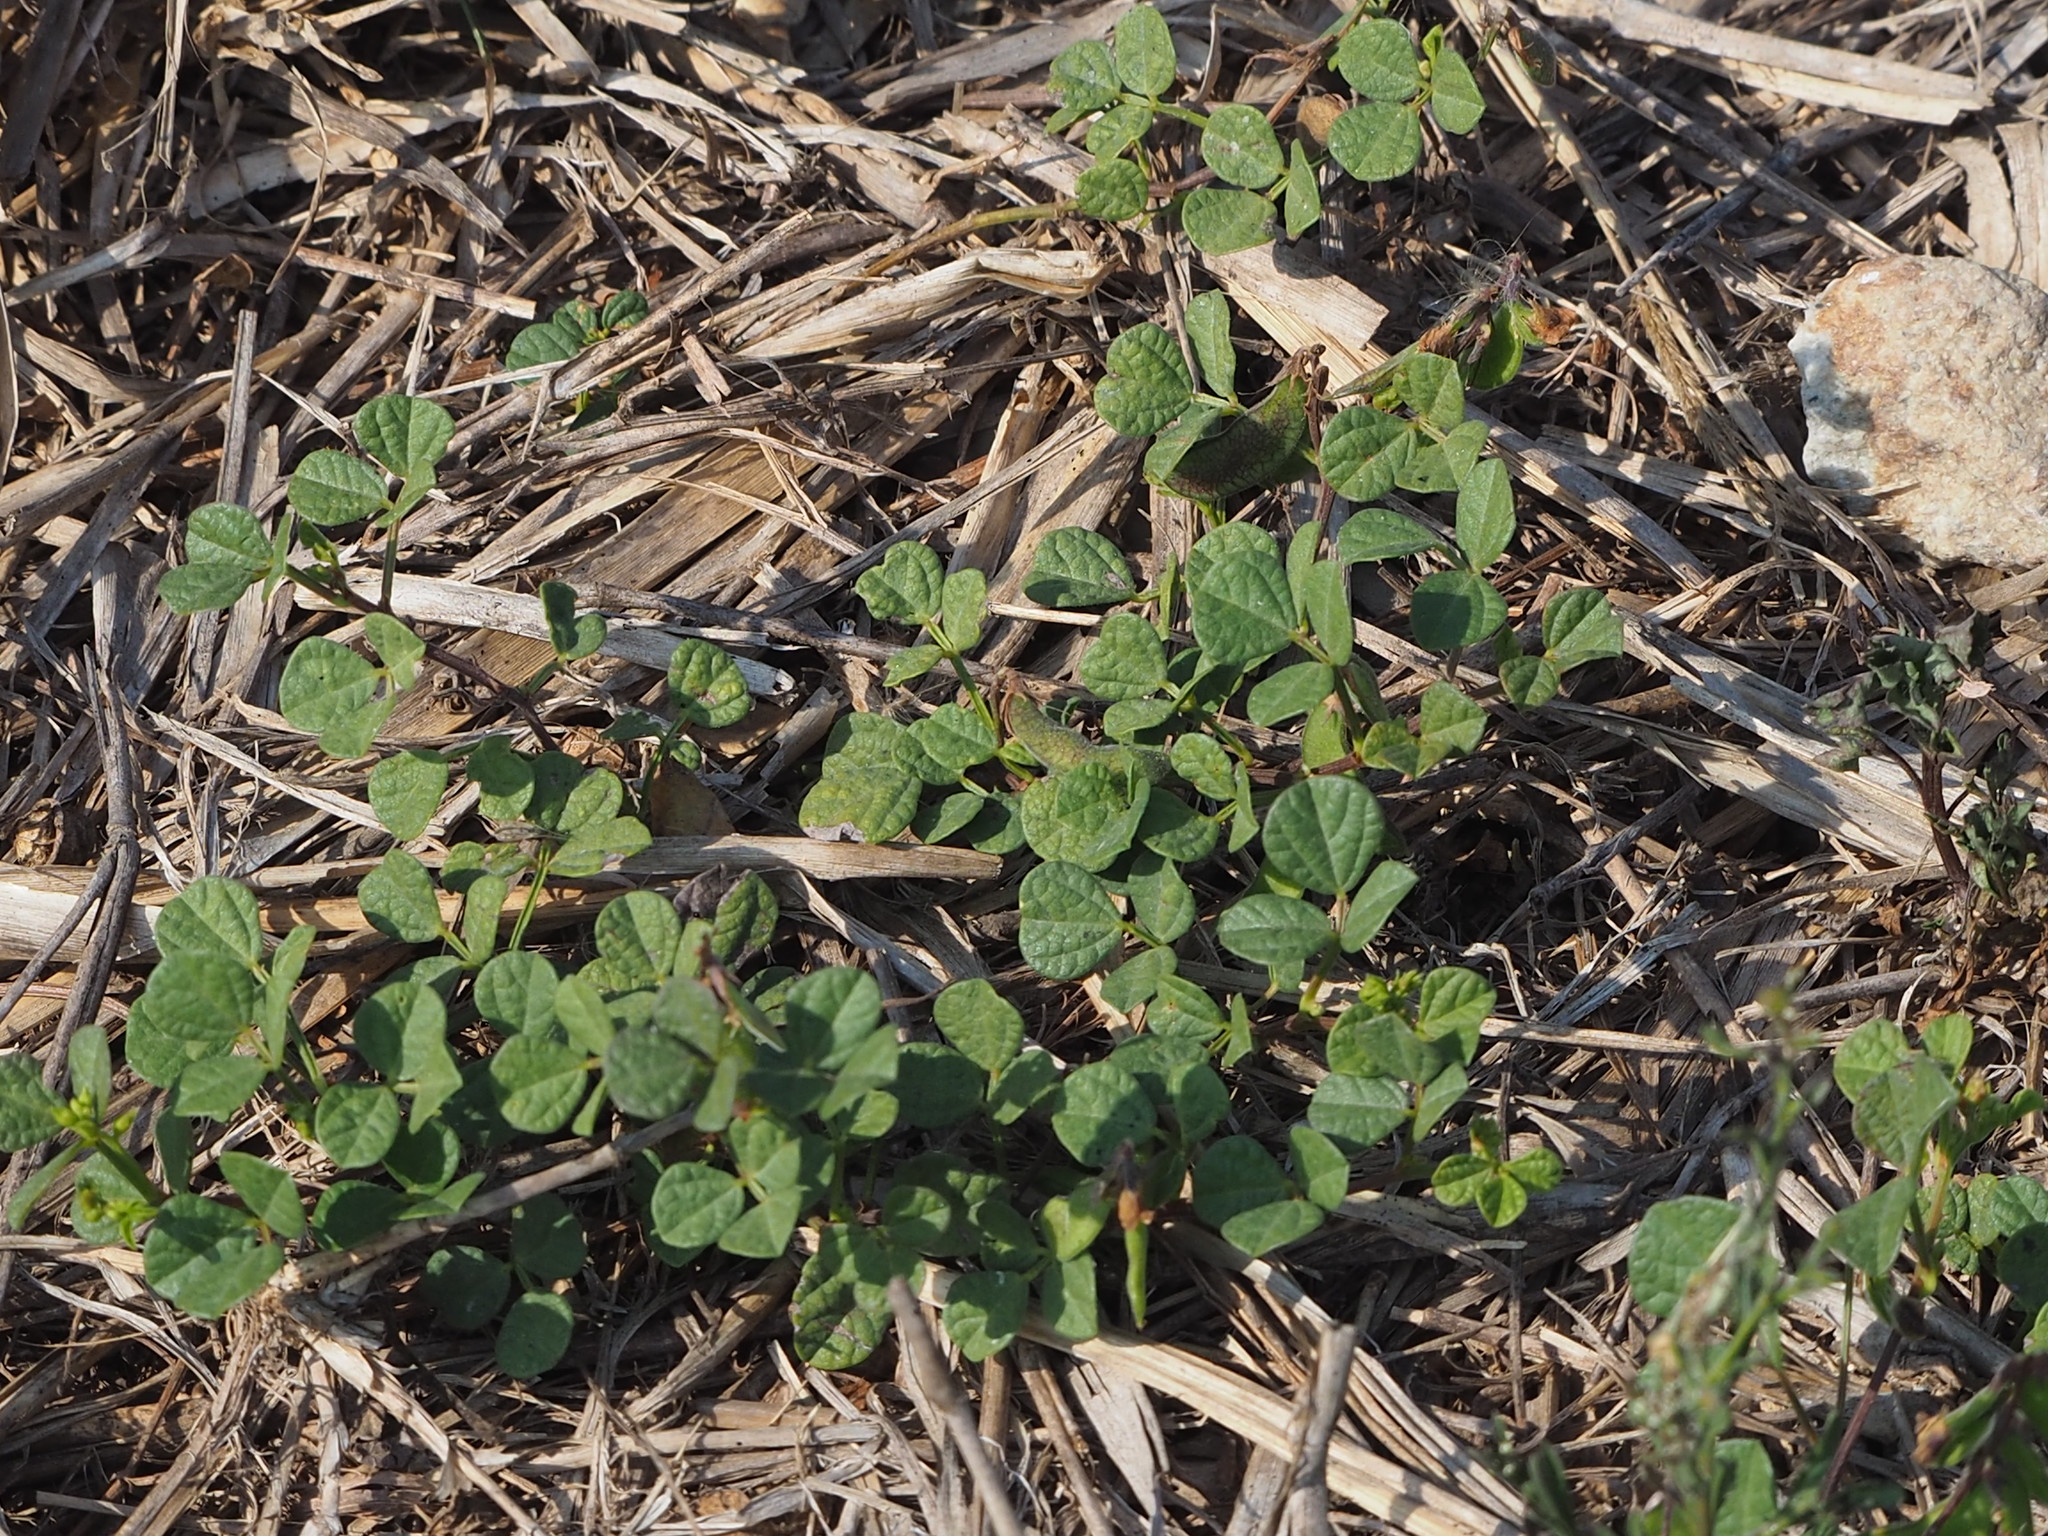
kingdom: Plantae
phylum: Tracheophyta
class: Magnoliopsida
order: Fabales
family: Fabaceae
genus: Rhynchosia
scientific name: Rhynchosia minima
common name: Least snoutbean
